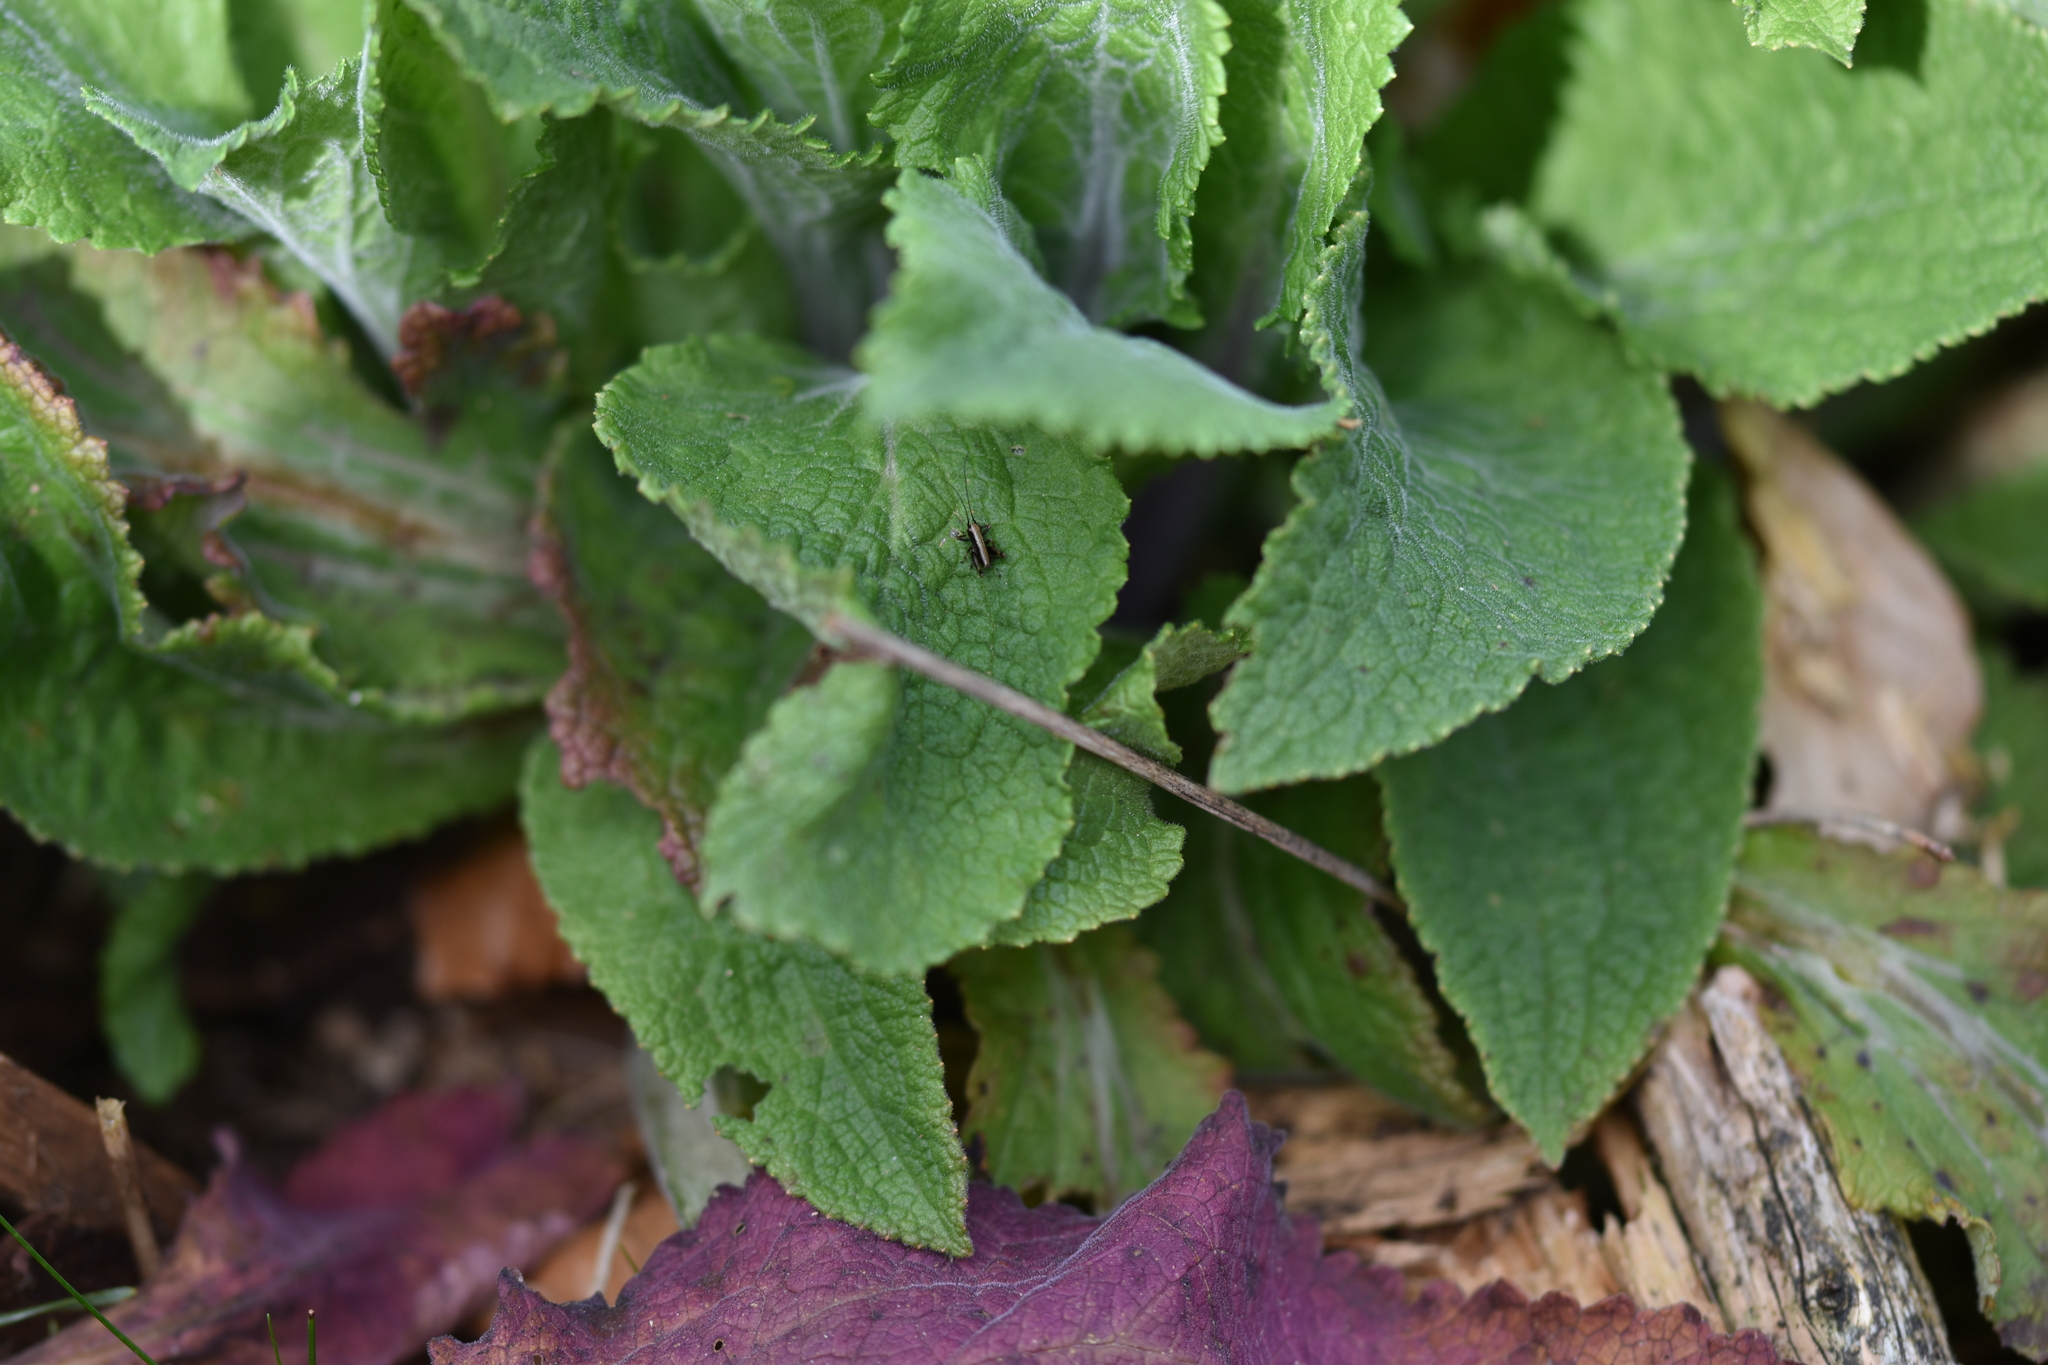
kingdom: Animalia
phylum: Arthropoda
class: Insecta
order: Orthoptera
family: Tettigoniidae
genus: Pholidoptera
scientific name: Pholidoptera griseoaptera
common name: Dark bush-cricket
